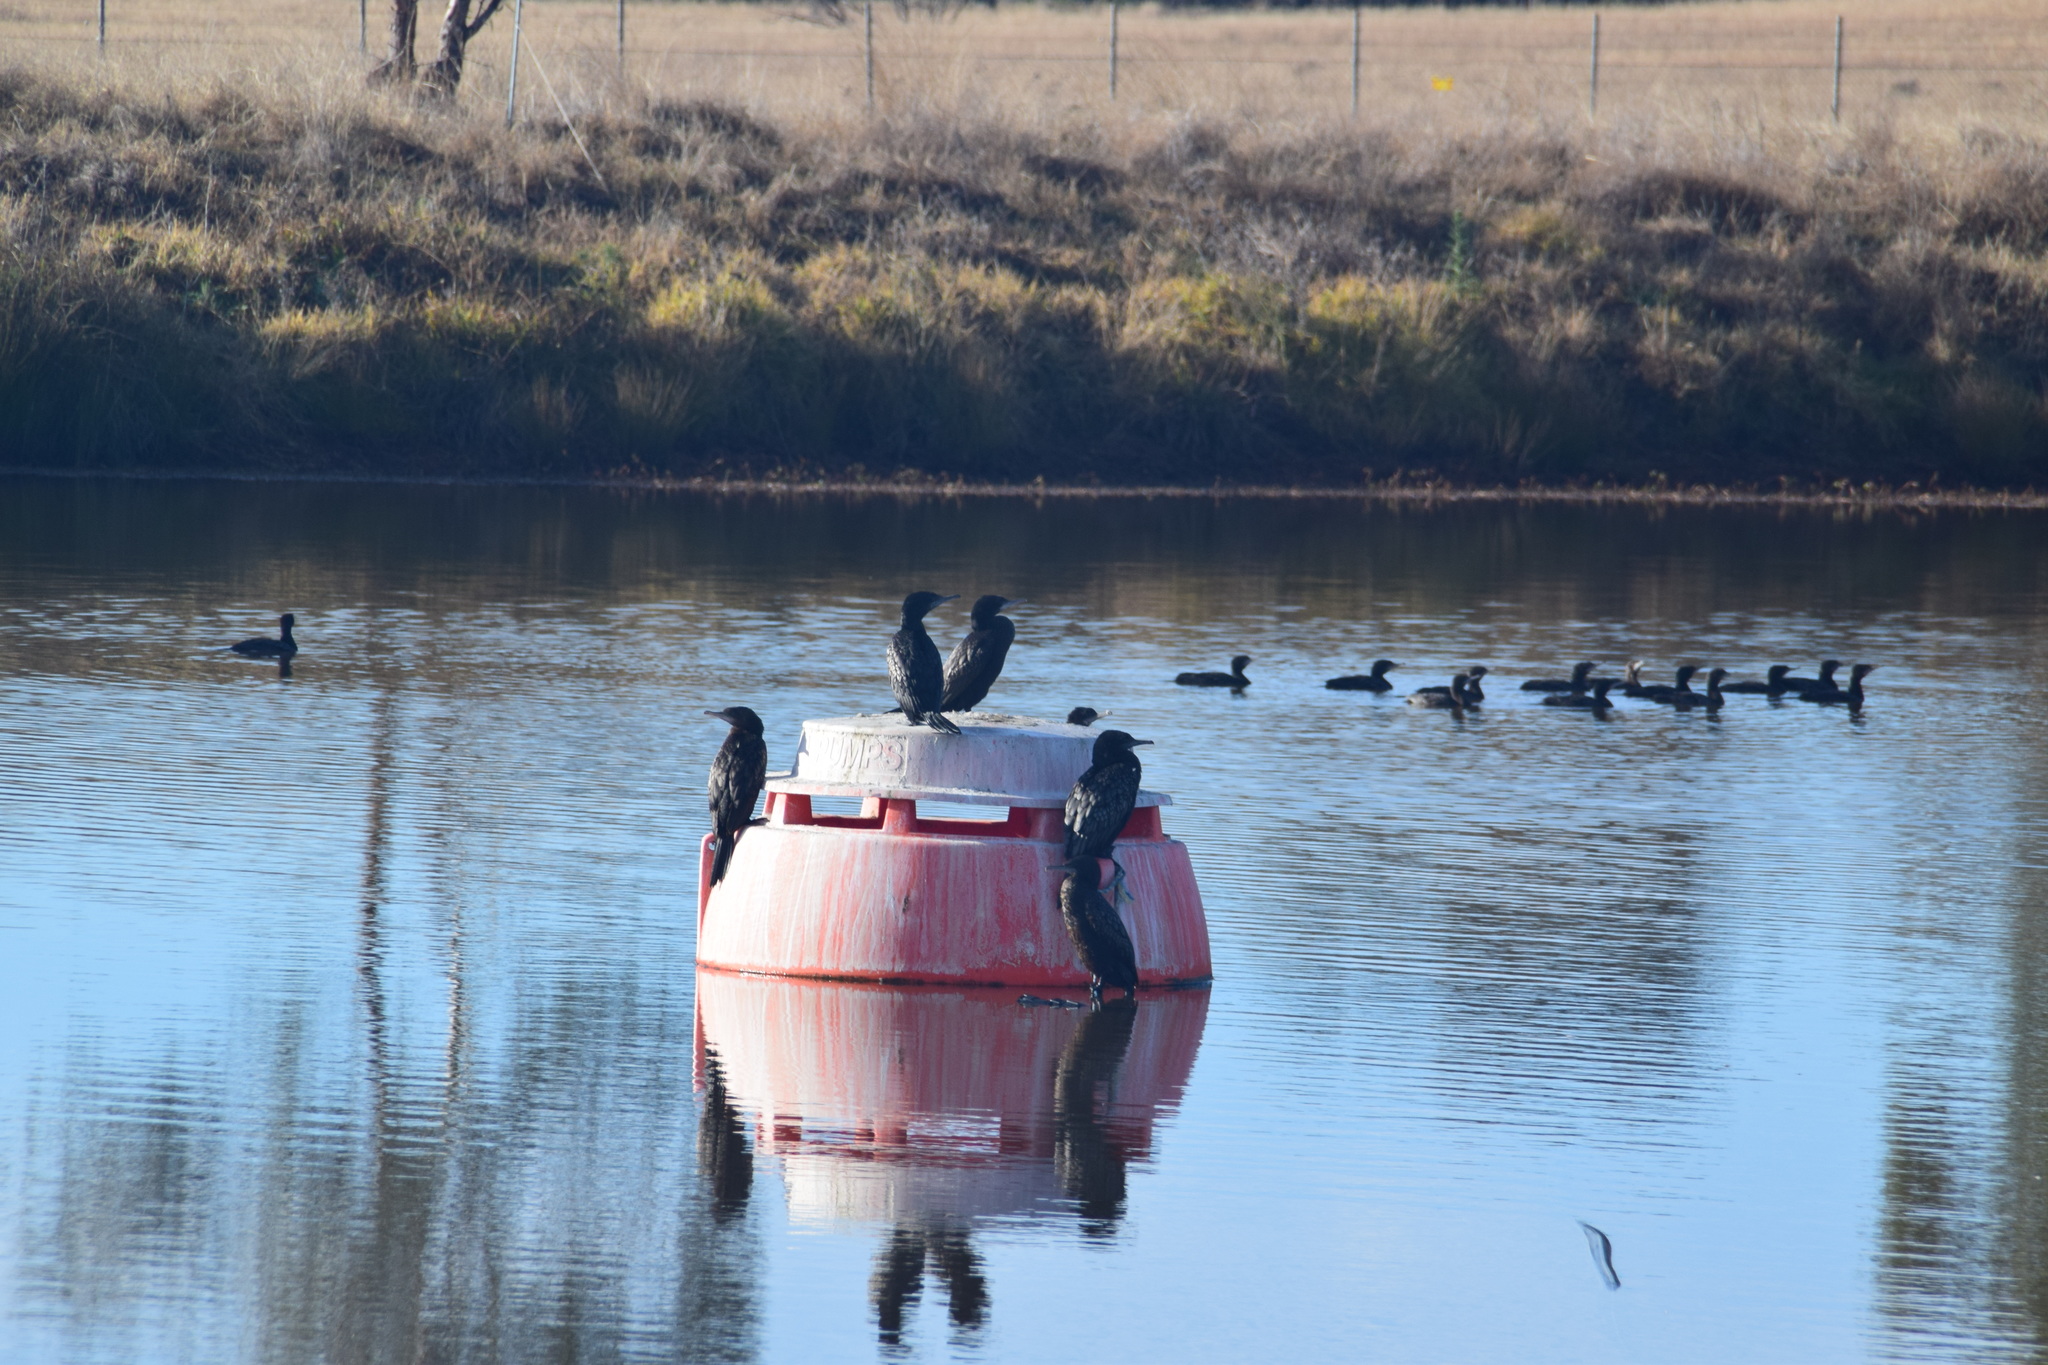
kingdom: Animalia
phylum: Chordata
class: Aves
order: Suliformes
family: Phalacrocoracidae
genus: Phalacrocorax
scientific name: Phalacrocorax sulcirostris
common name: Little black cormorant
